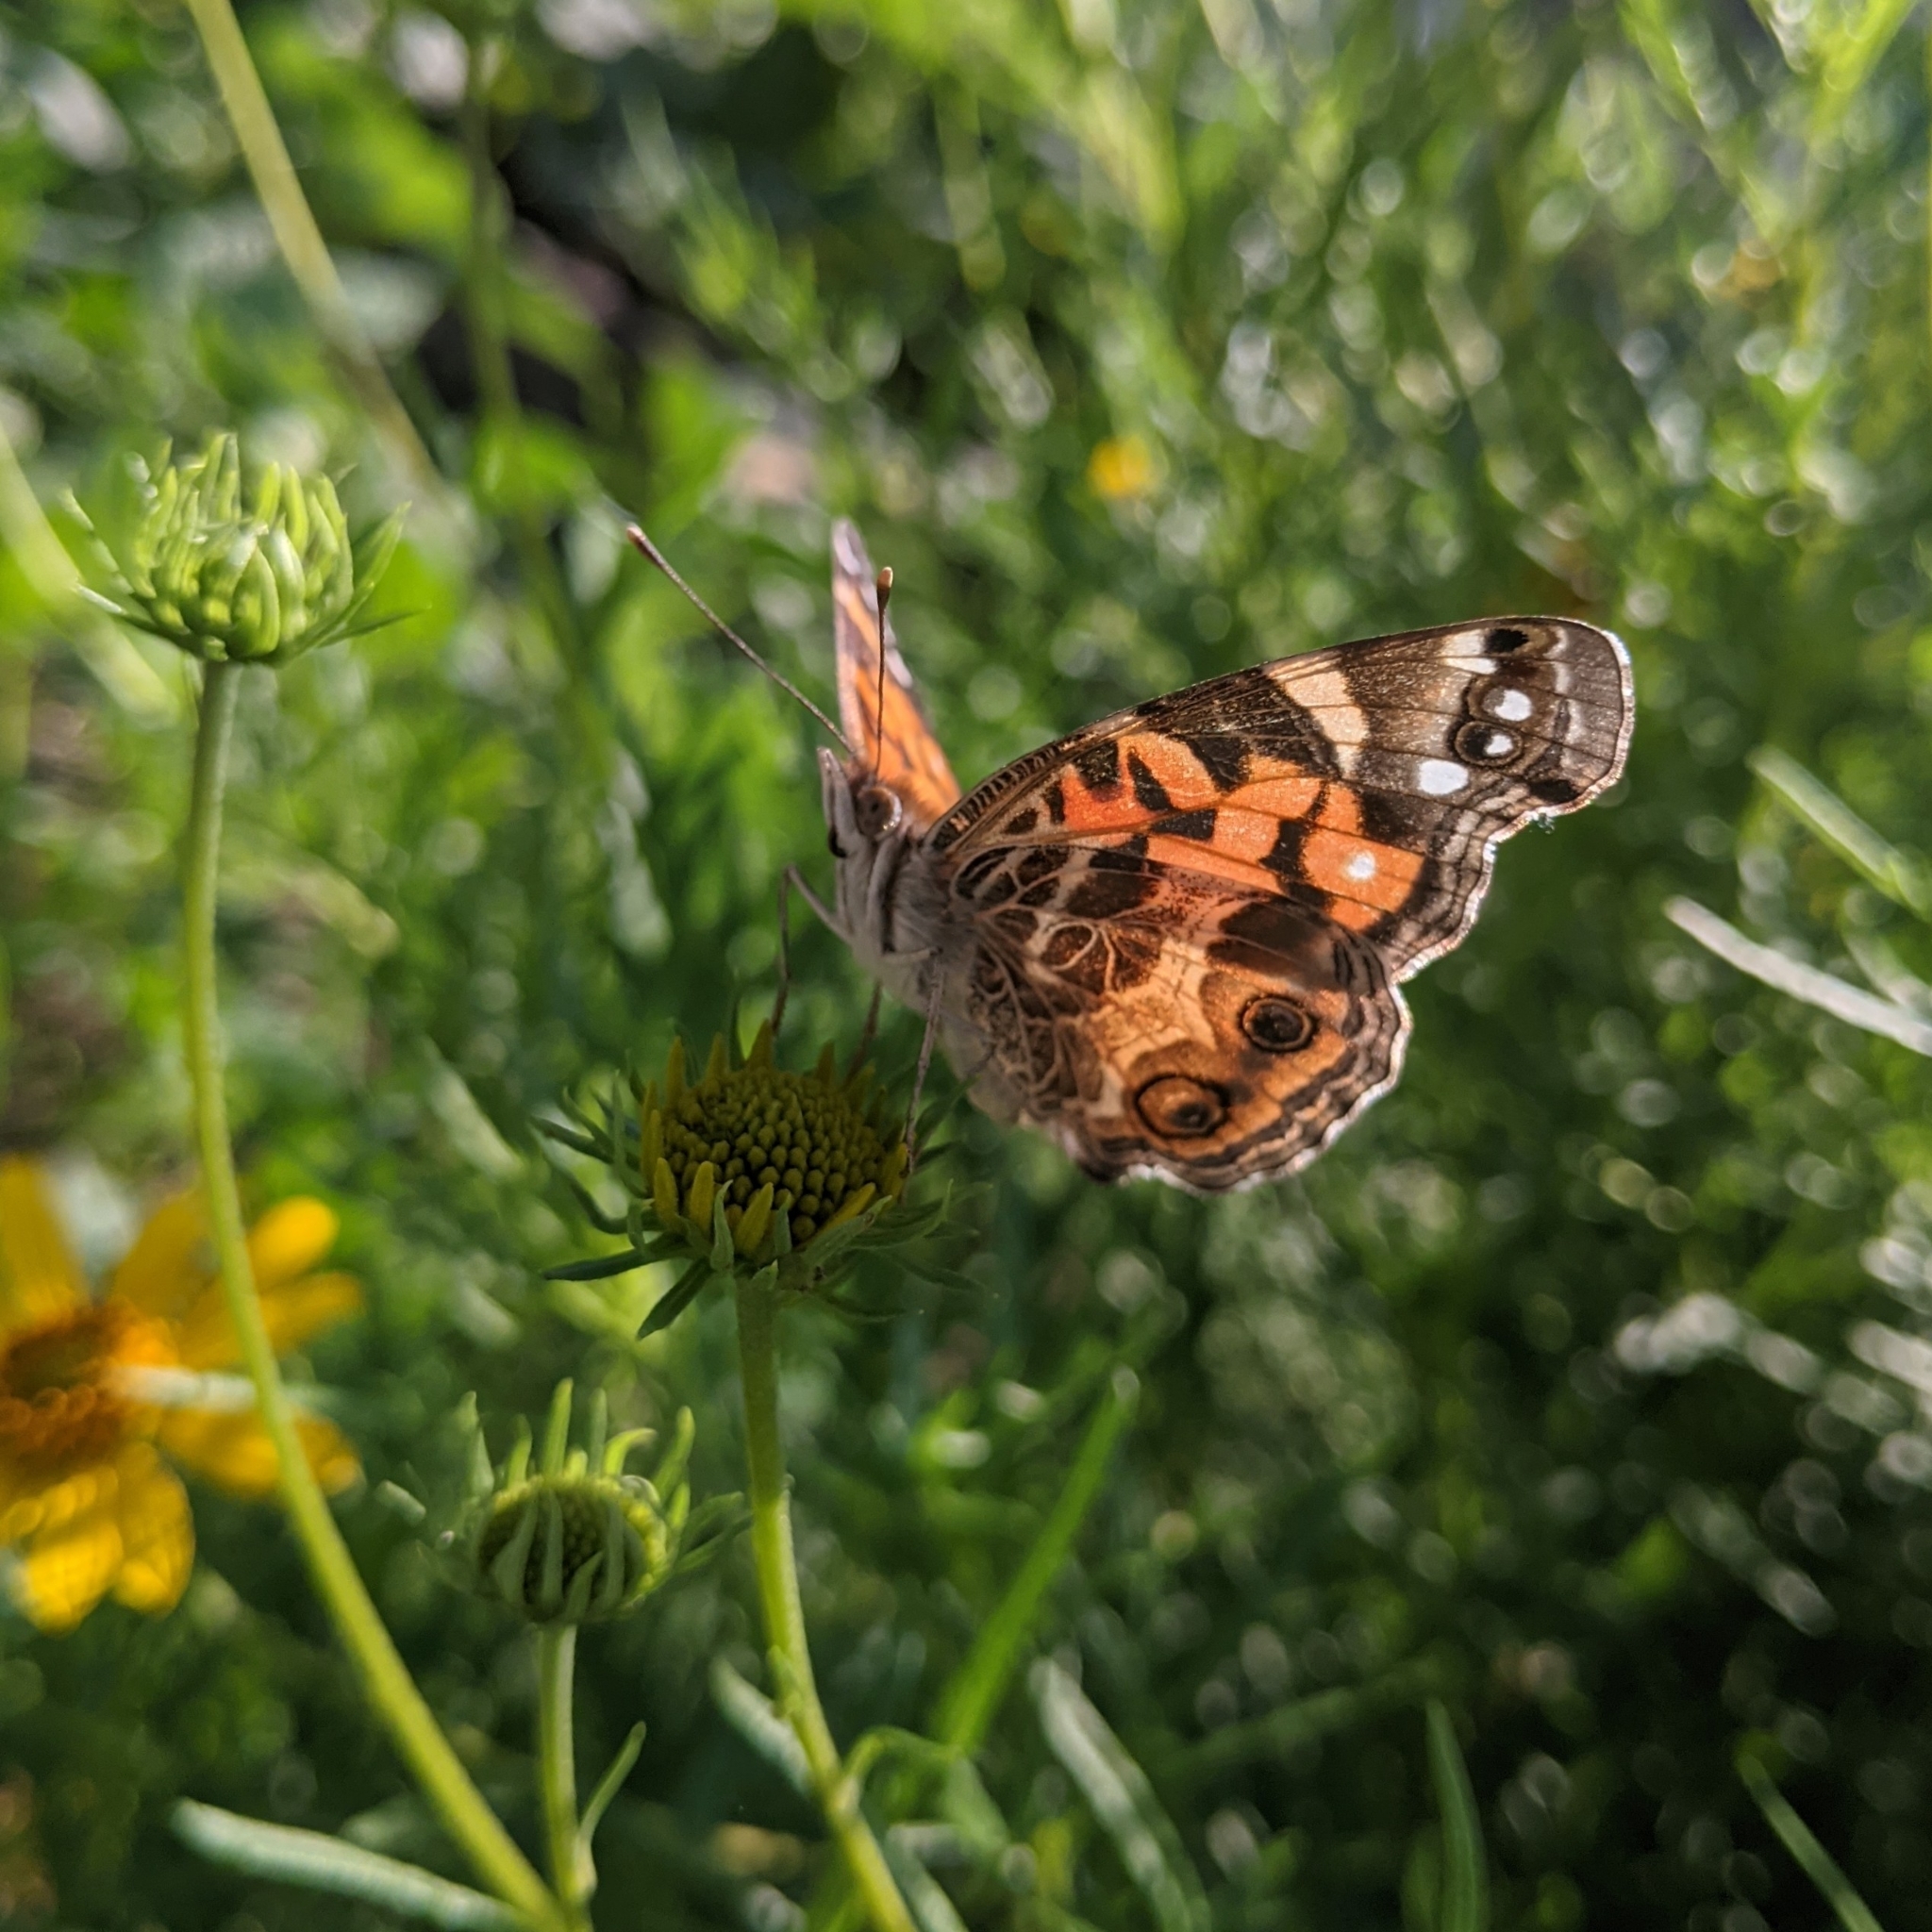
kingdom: Animalia
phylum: Arthropoda
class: Insecta
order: Lepidoptera
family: Nymphalidae
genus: Vanessa
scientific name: Vanessa virginiensis
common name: American lady
